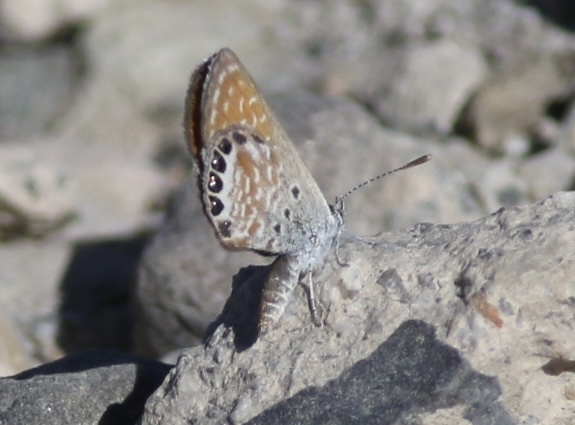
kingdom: Animalia
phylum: Arthropoda
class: Insecta
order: Lepidoptera
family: Lycaenidae
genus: Brephidium
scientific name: Brephidium exilis
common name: Pygmy blue
